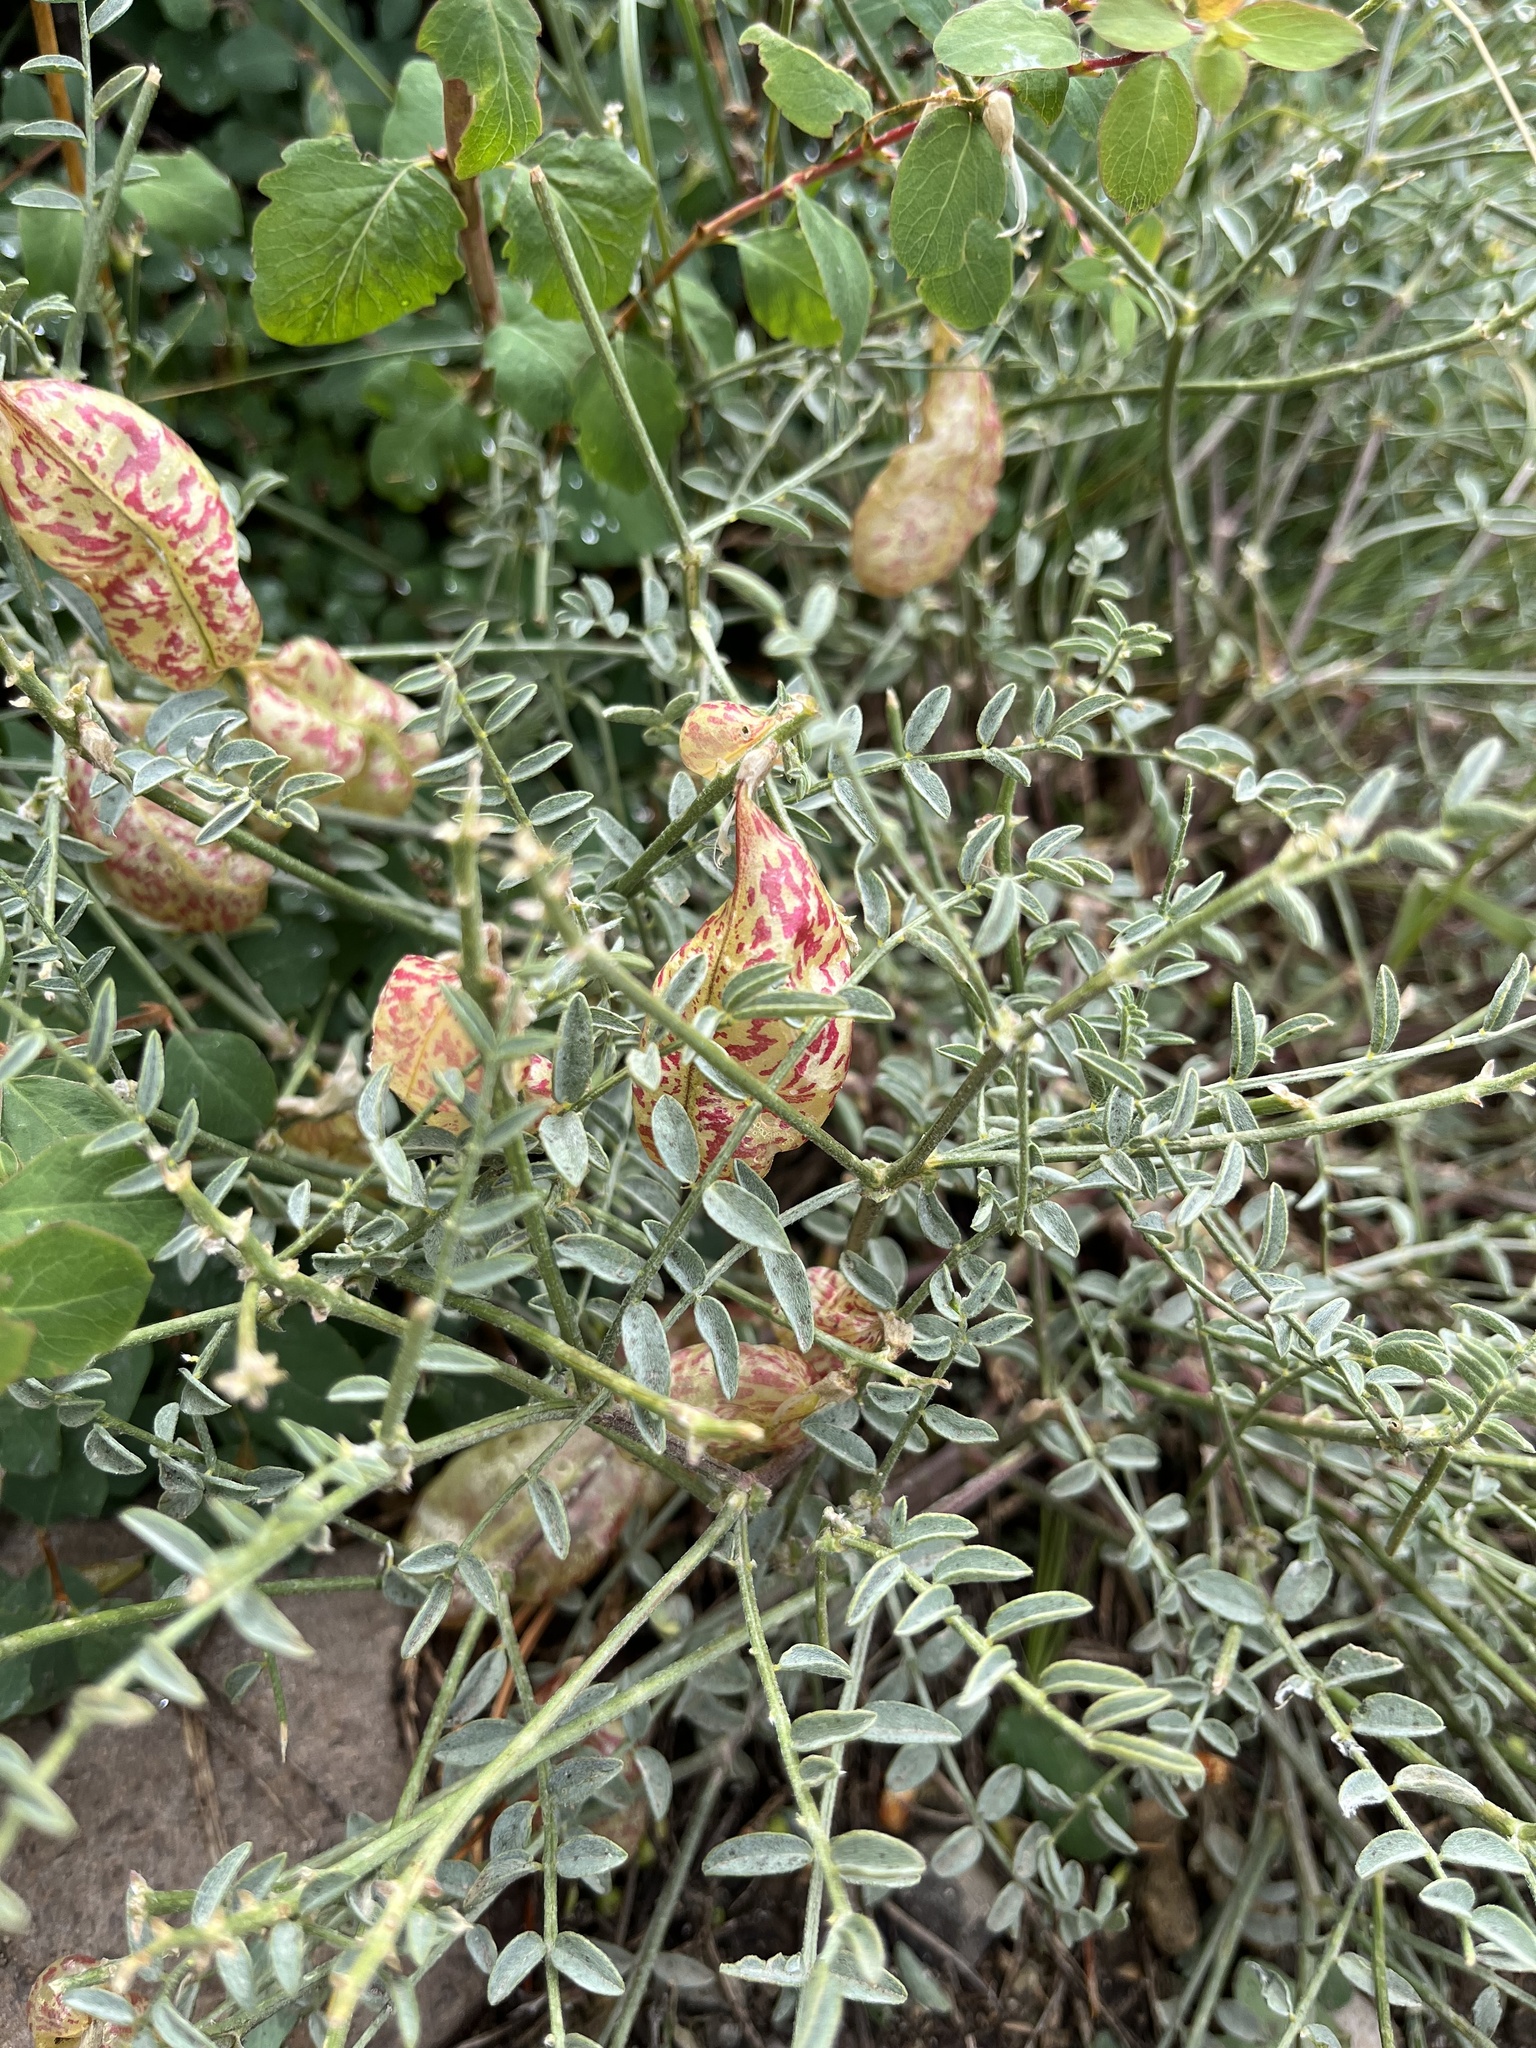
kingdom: Plantae
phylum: Tracheophyta
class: Magnoliopsida
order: Fabales
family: Fabaceae
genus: Astragalus
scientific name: Astragalus whitneyi
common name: Balloonpod milkvetch
